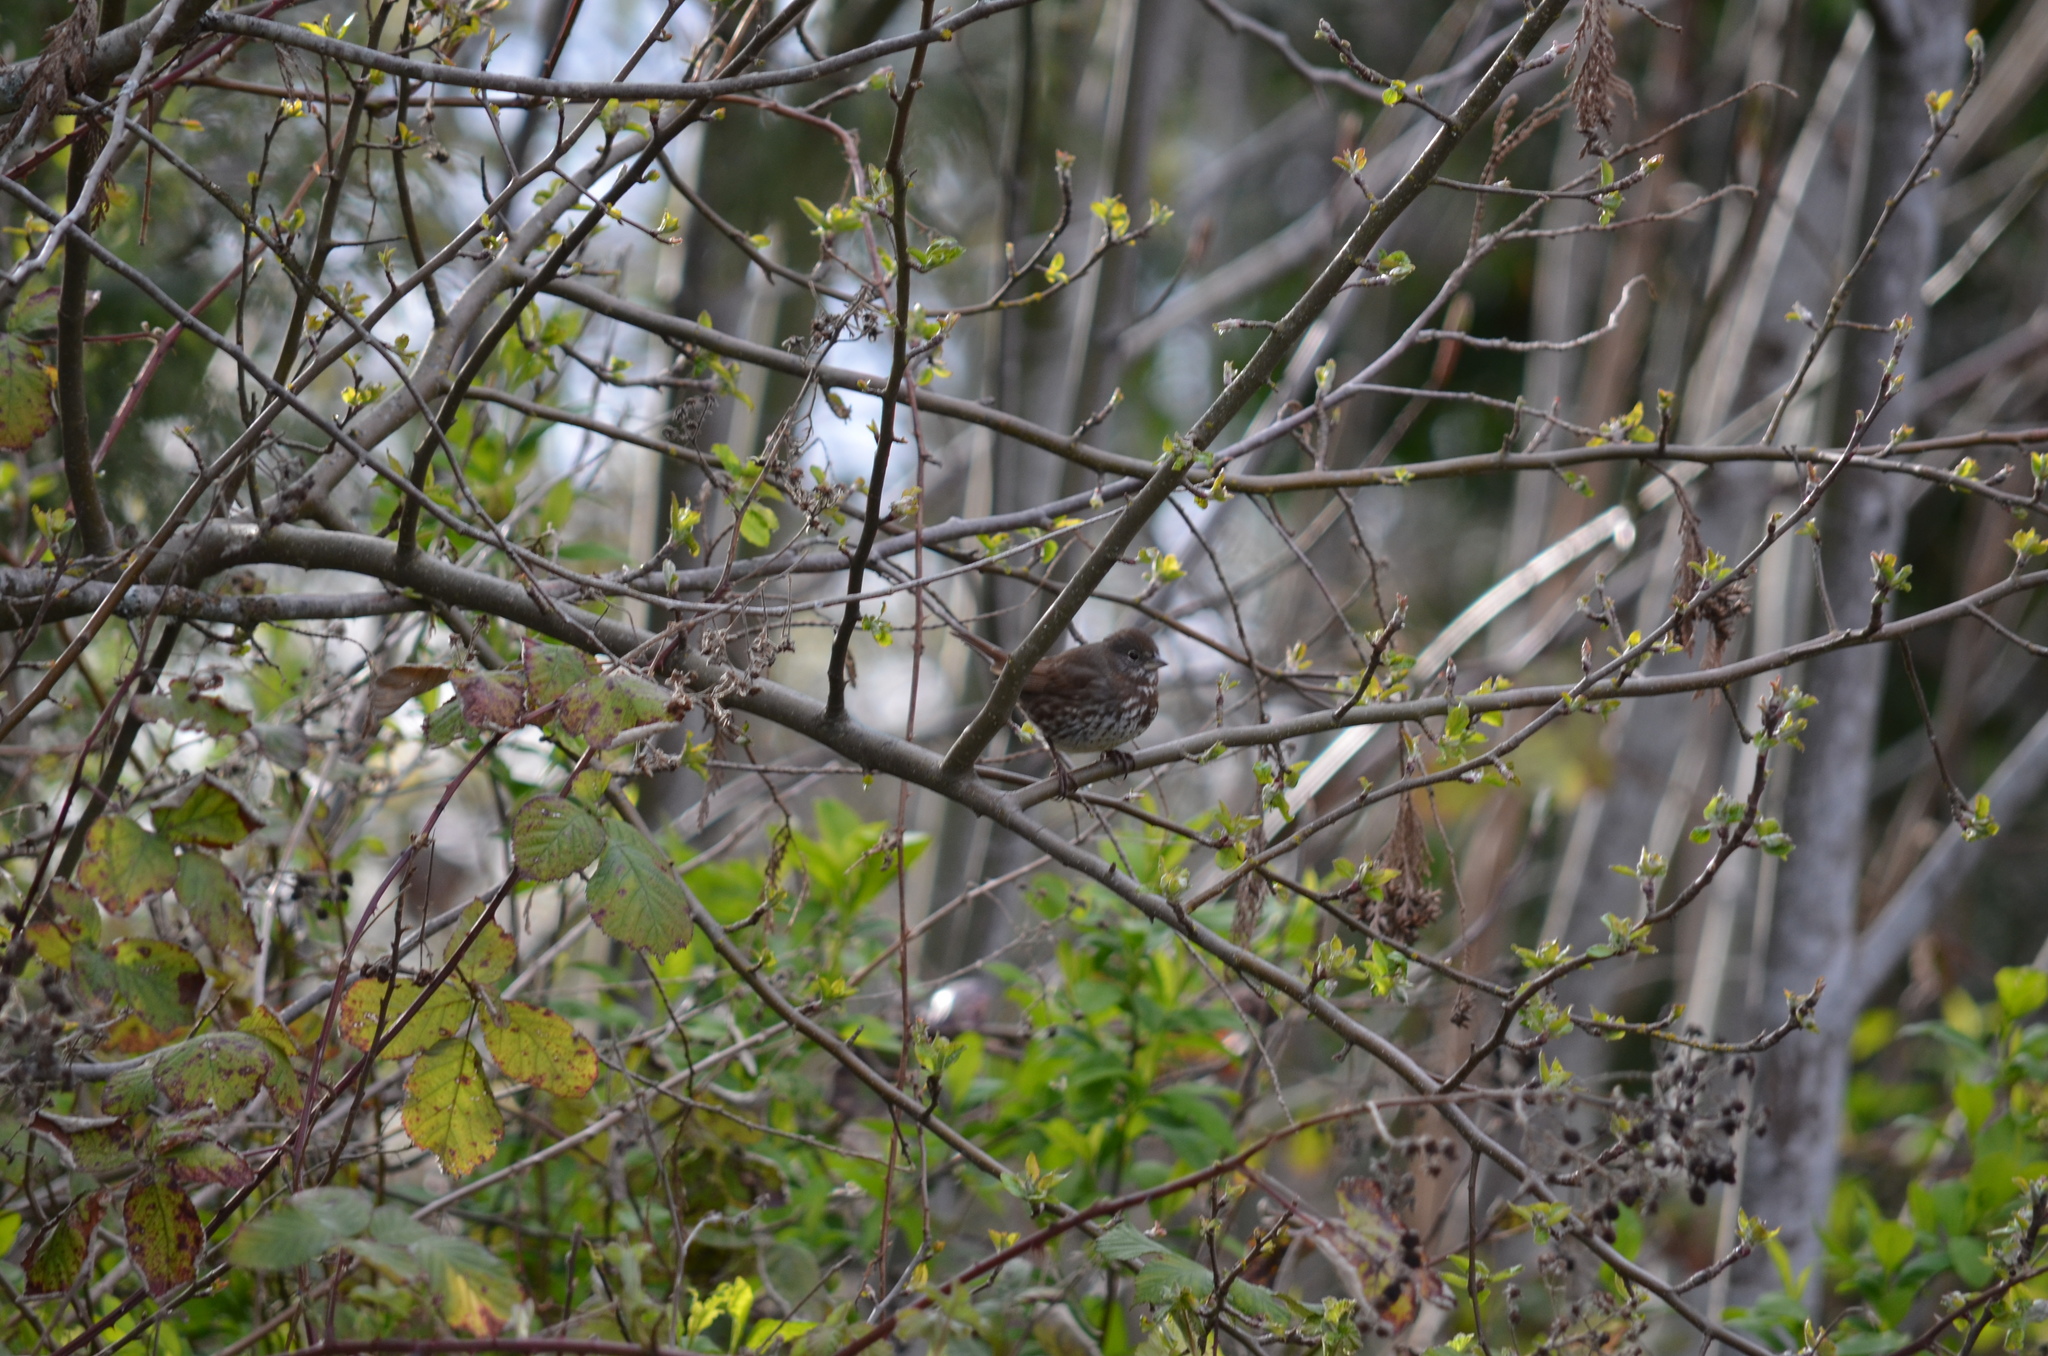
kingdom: Animalia
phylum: Chordata
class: Aves
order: Passeriformes
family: Passerellidae
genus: Passerella
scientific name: Passerella iliaca
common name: Fox sparrow
